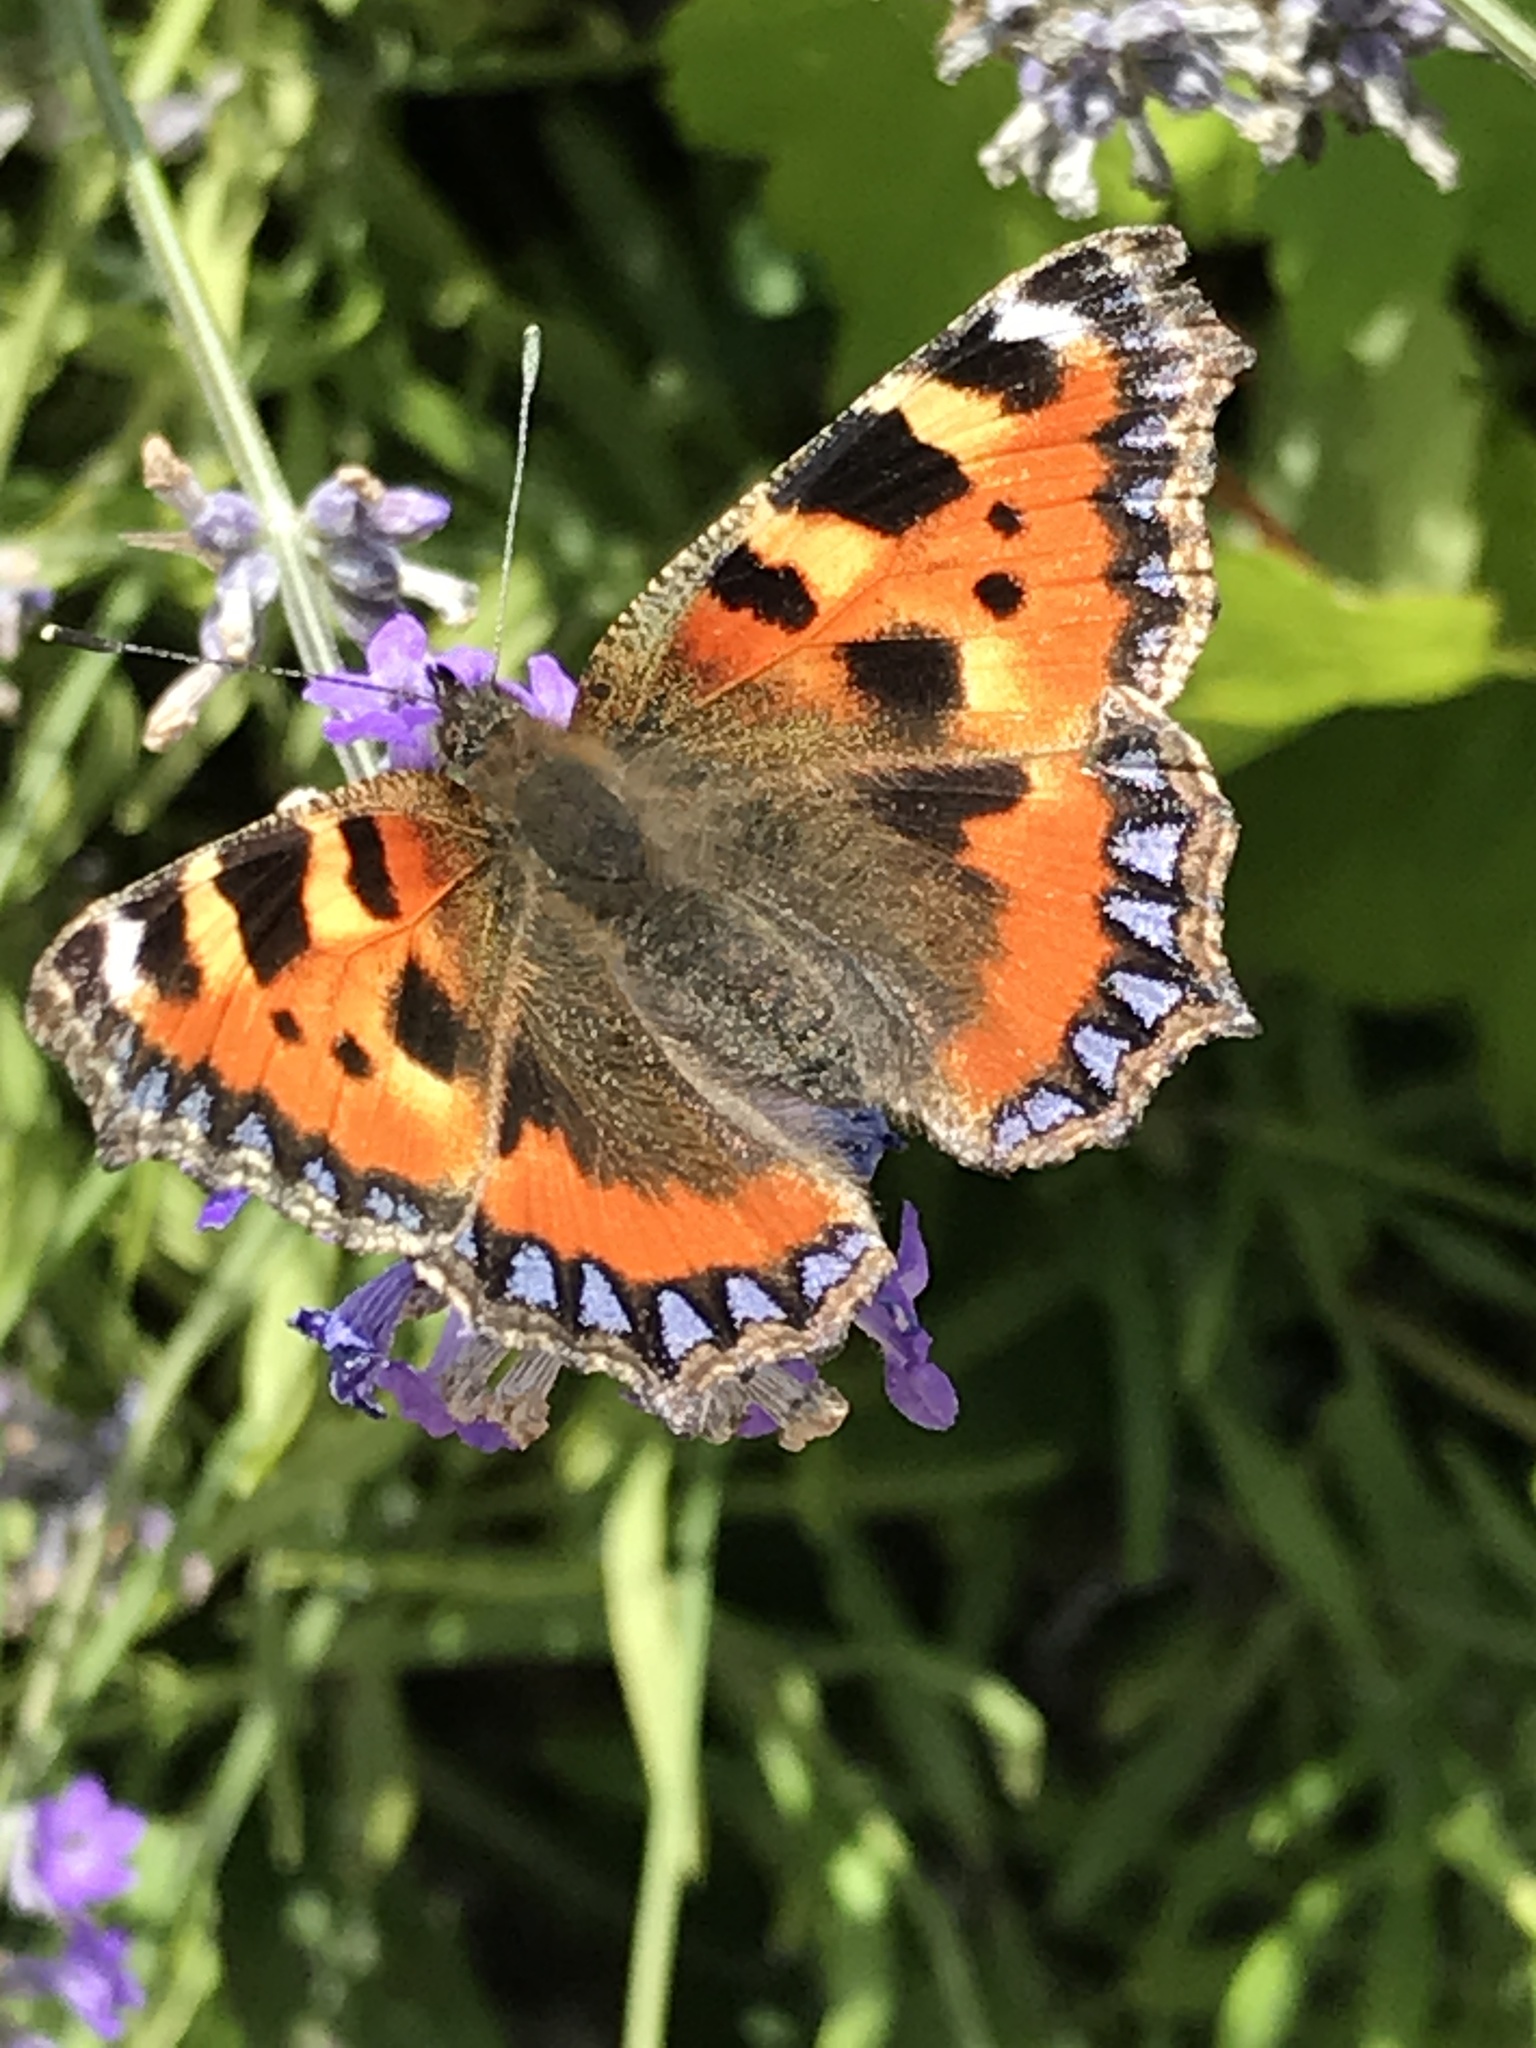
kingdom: Animalia
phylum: Arthropoda
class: Insecta
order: Lepidoptera
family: Nymphalidae
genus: Aglais
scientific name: Aglais urticae
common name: Small tortoiseshell
